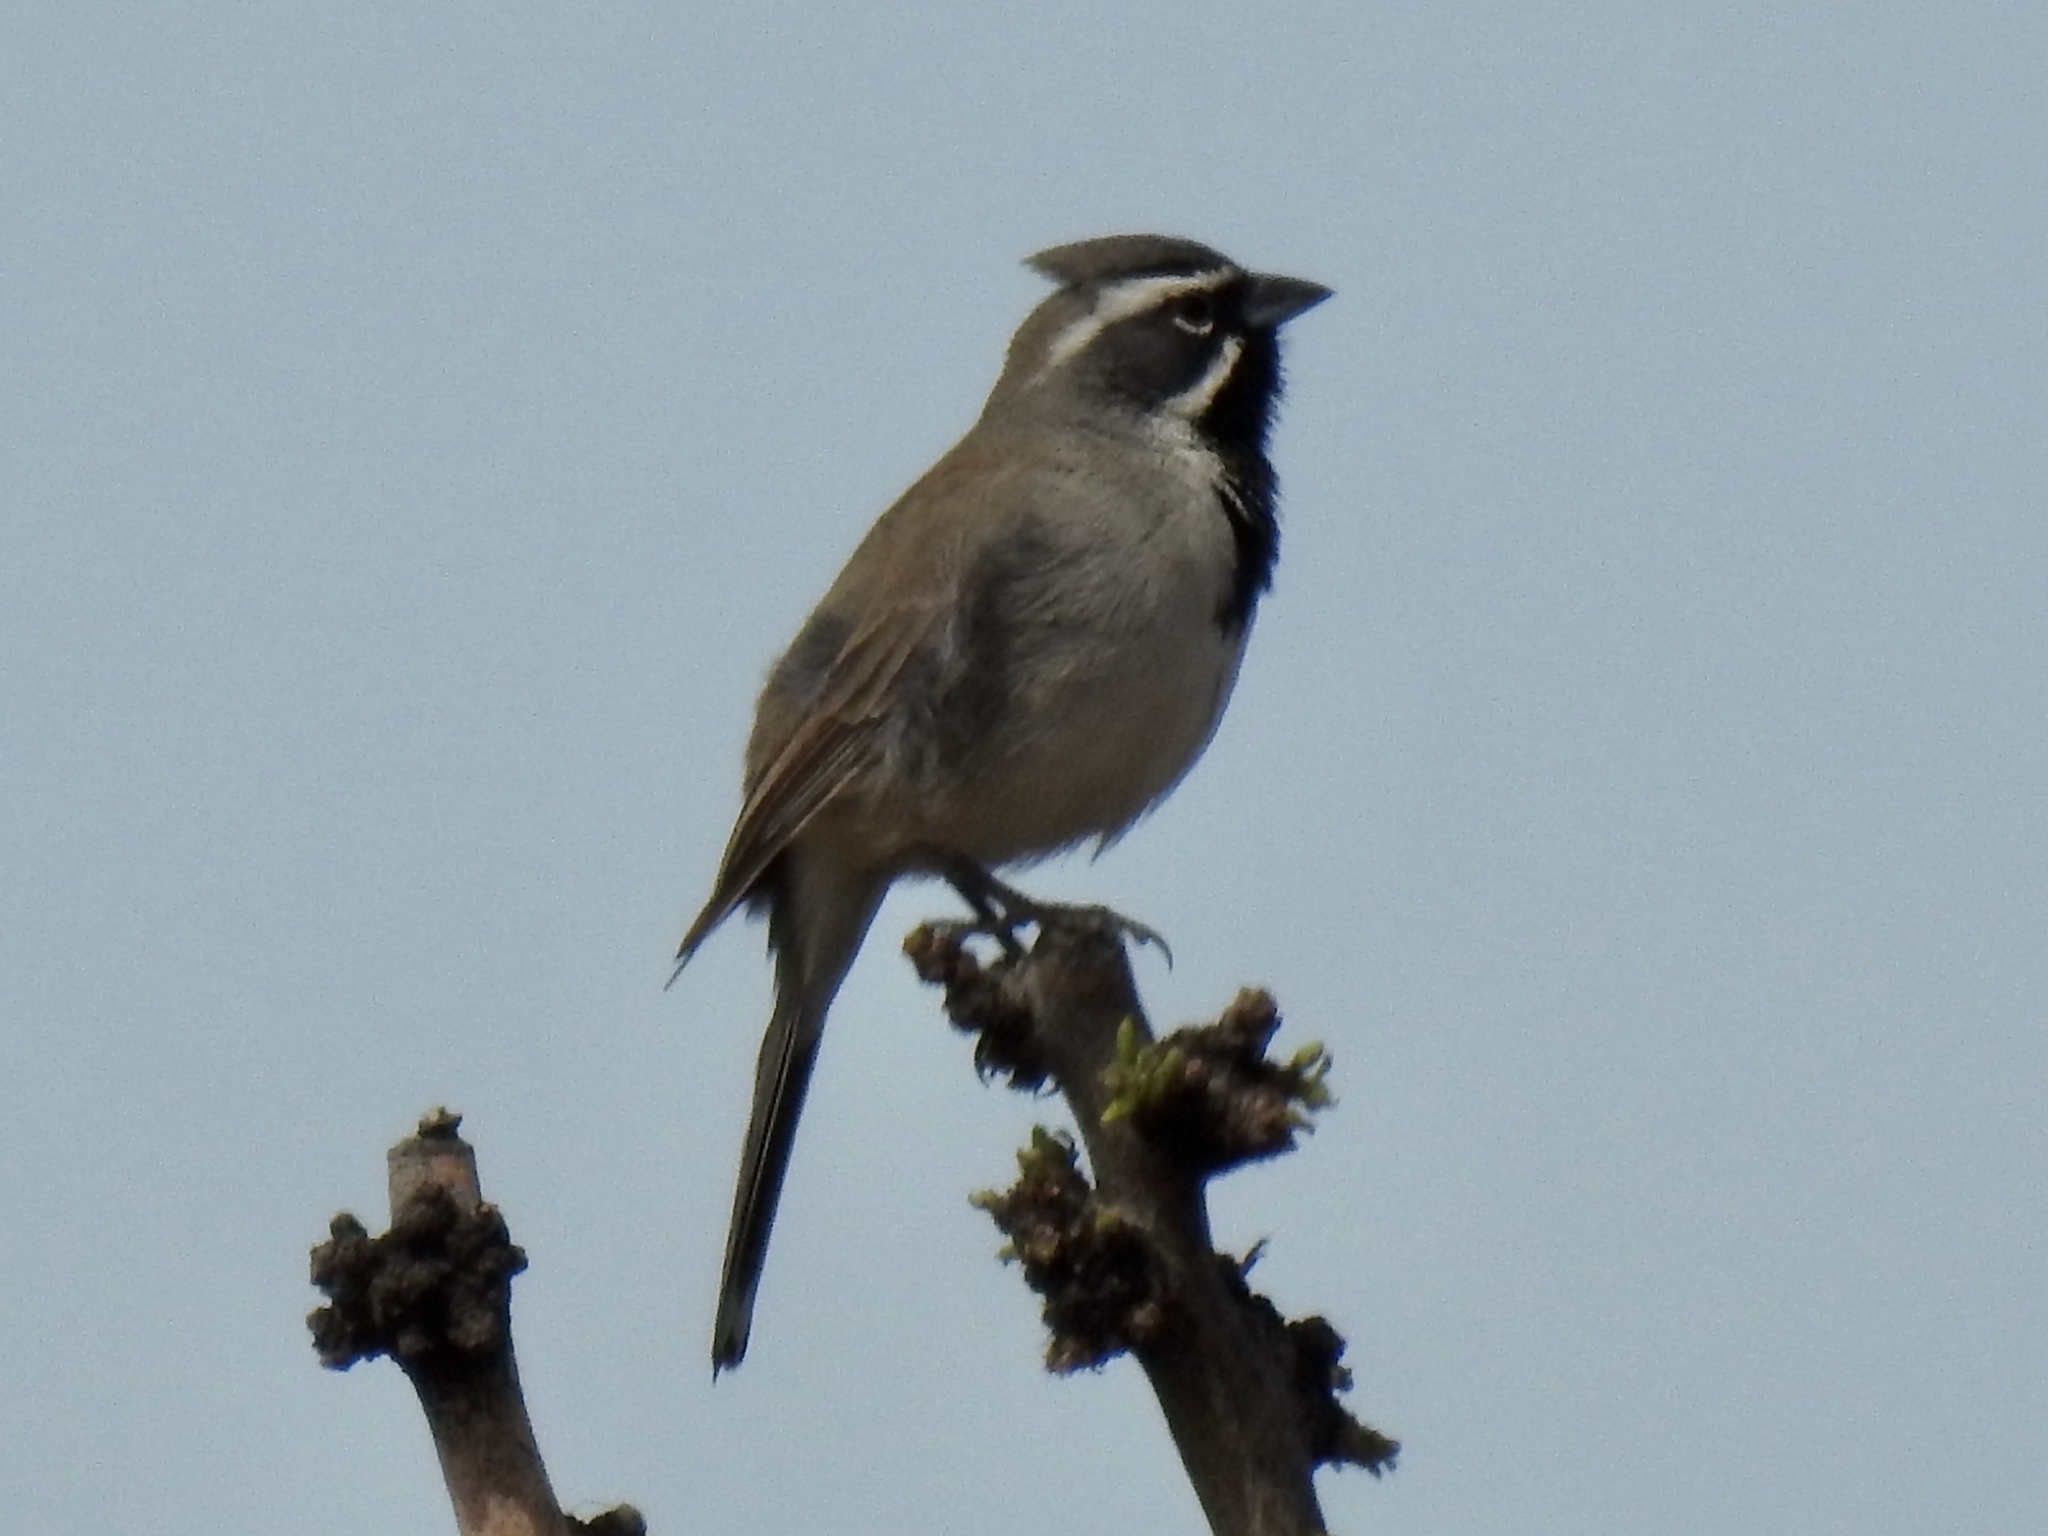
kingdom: Animalia
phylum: Chordata
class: Aves
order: Passeriformes
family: Passerellidae
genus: Amphispiza
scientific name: Amphispiza bilineata
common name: Black-throated sparrow
